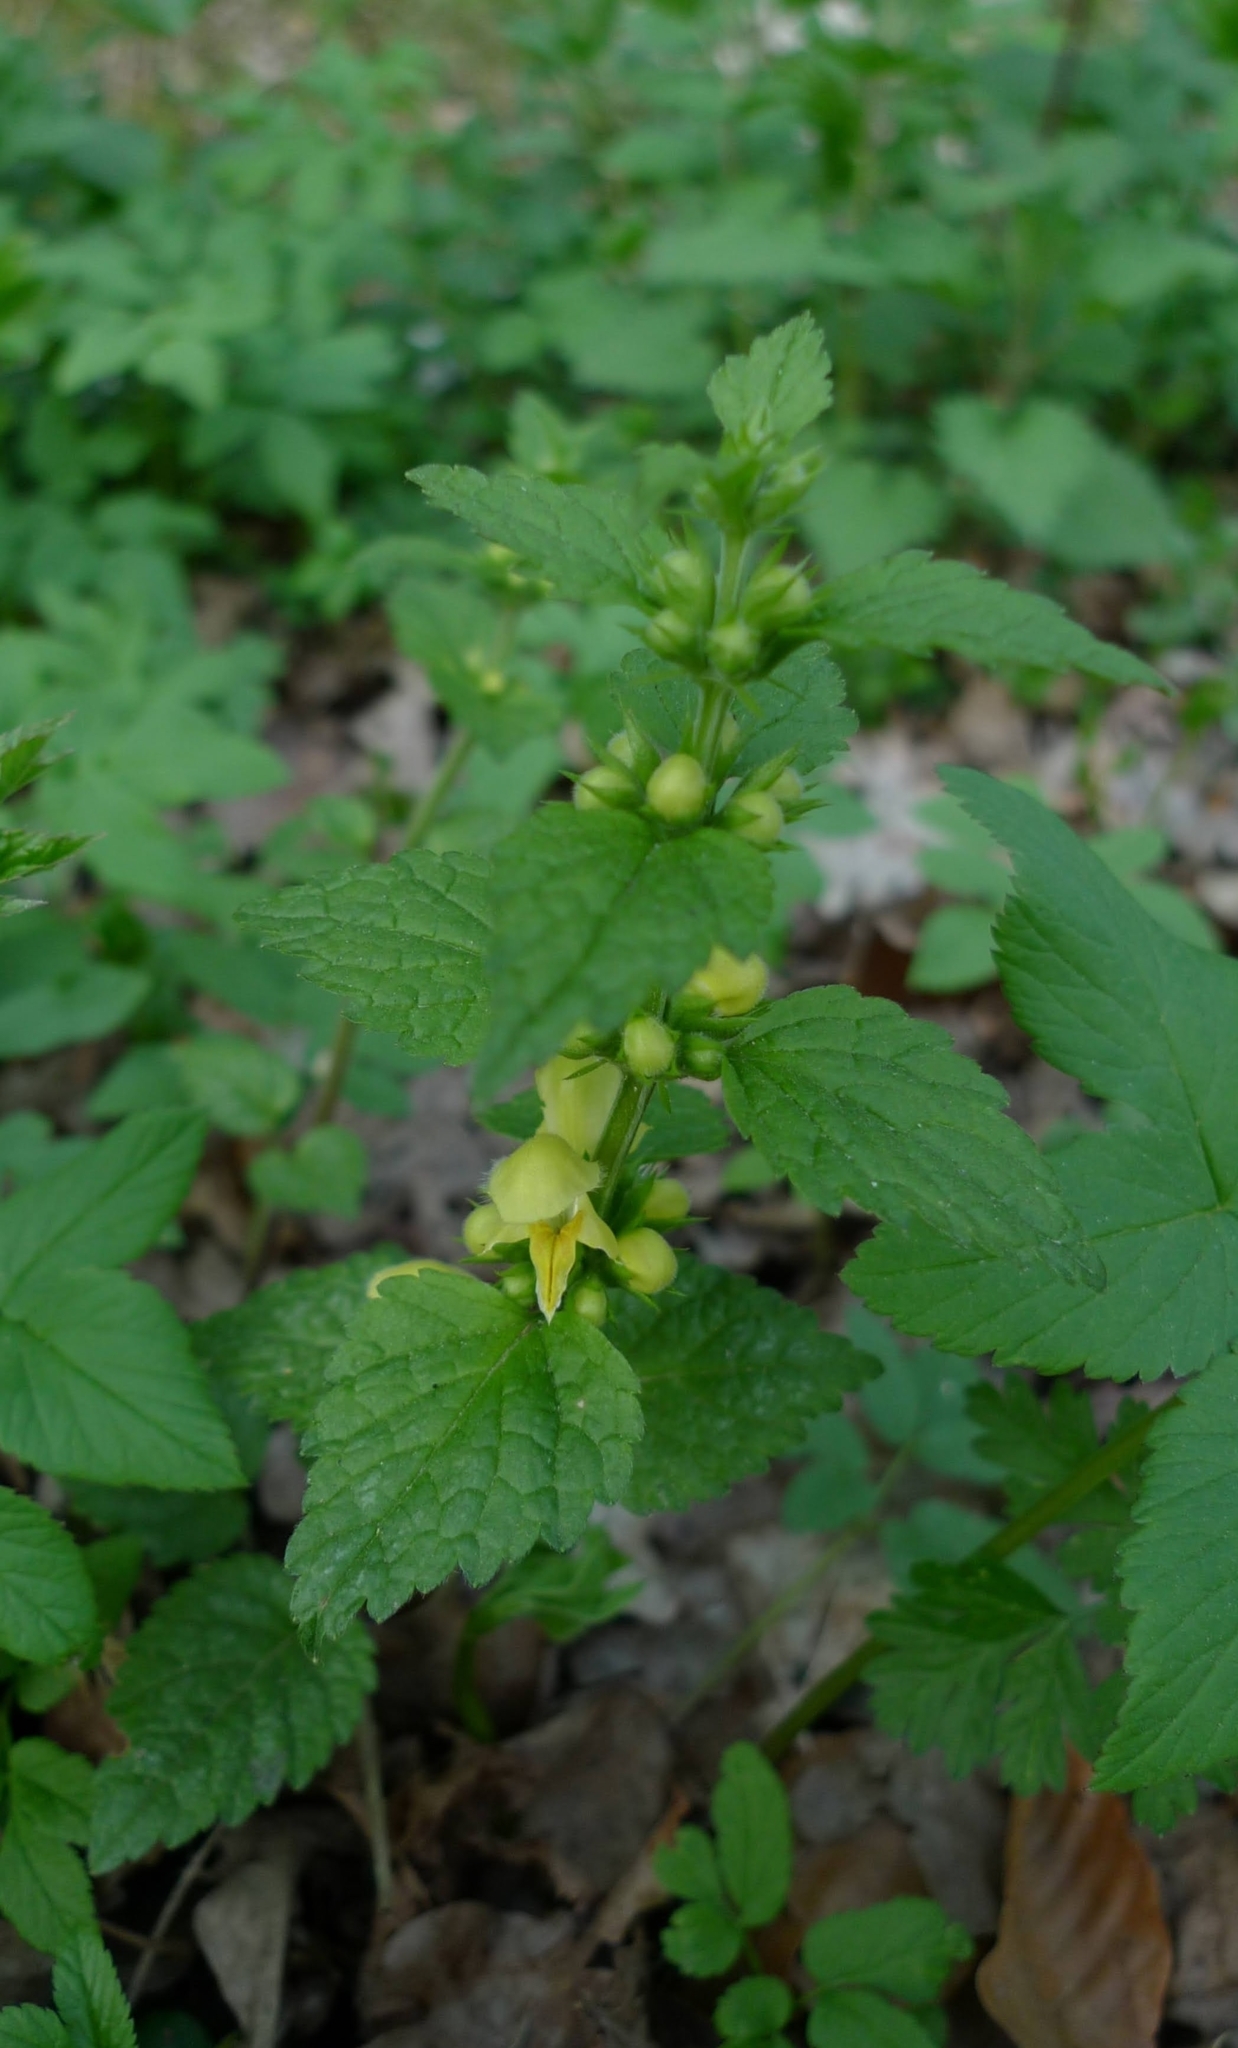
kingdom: Plantae
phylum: Tracheophyta
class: Magnoliopsida
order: Lamiales
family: Lamiaceae
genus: Lamium
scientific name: Lamium galeobdolon
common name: Yellow archangel
